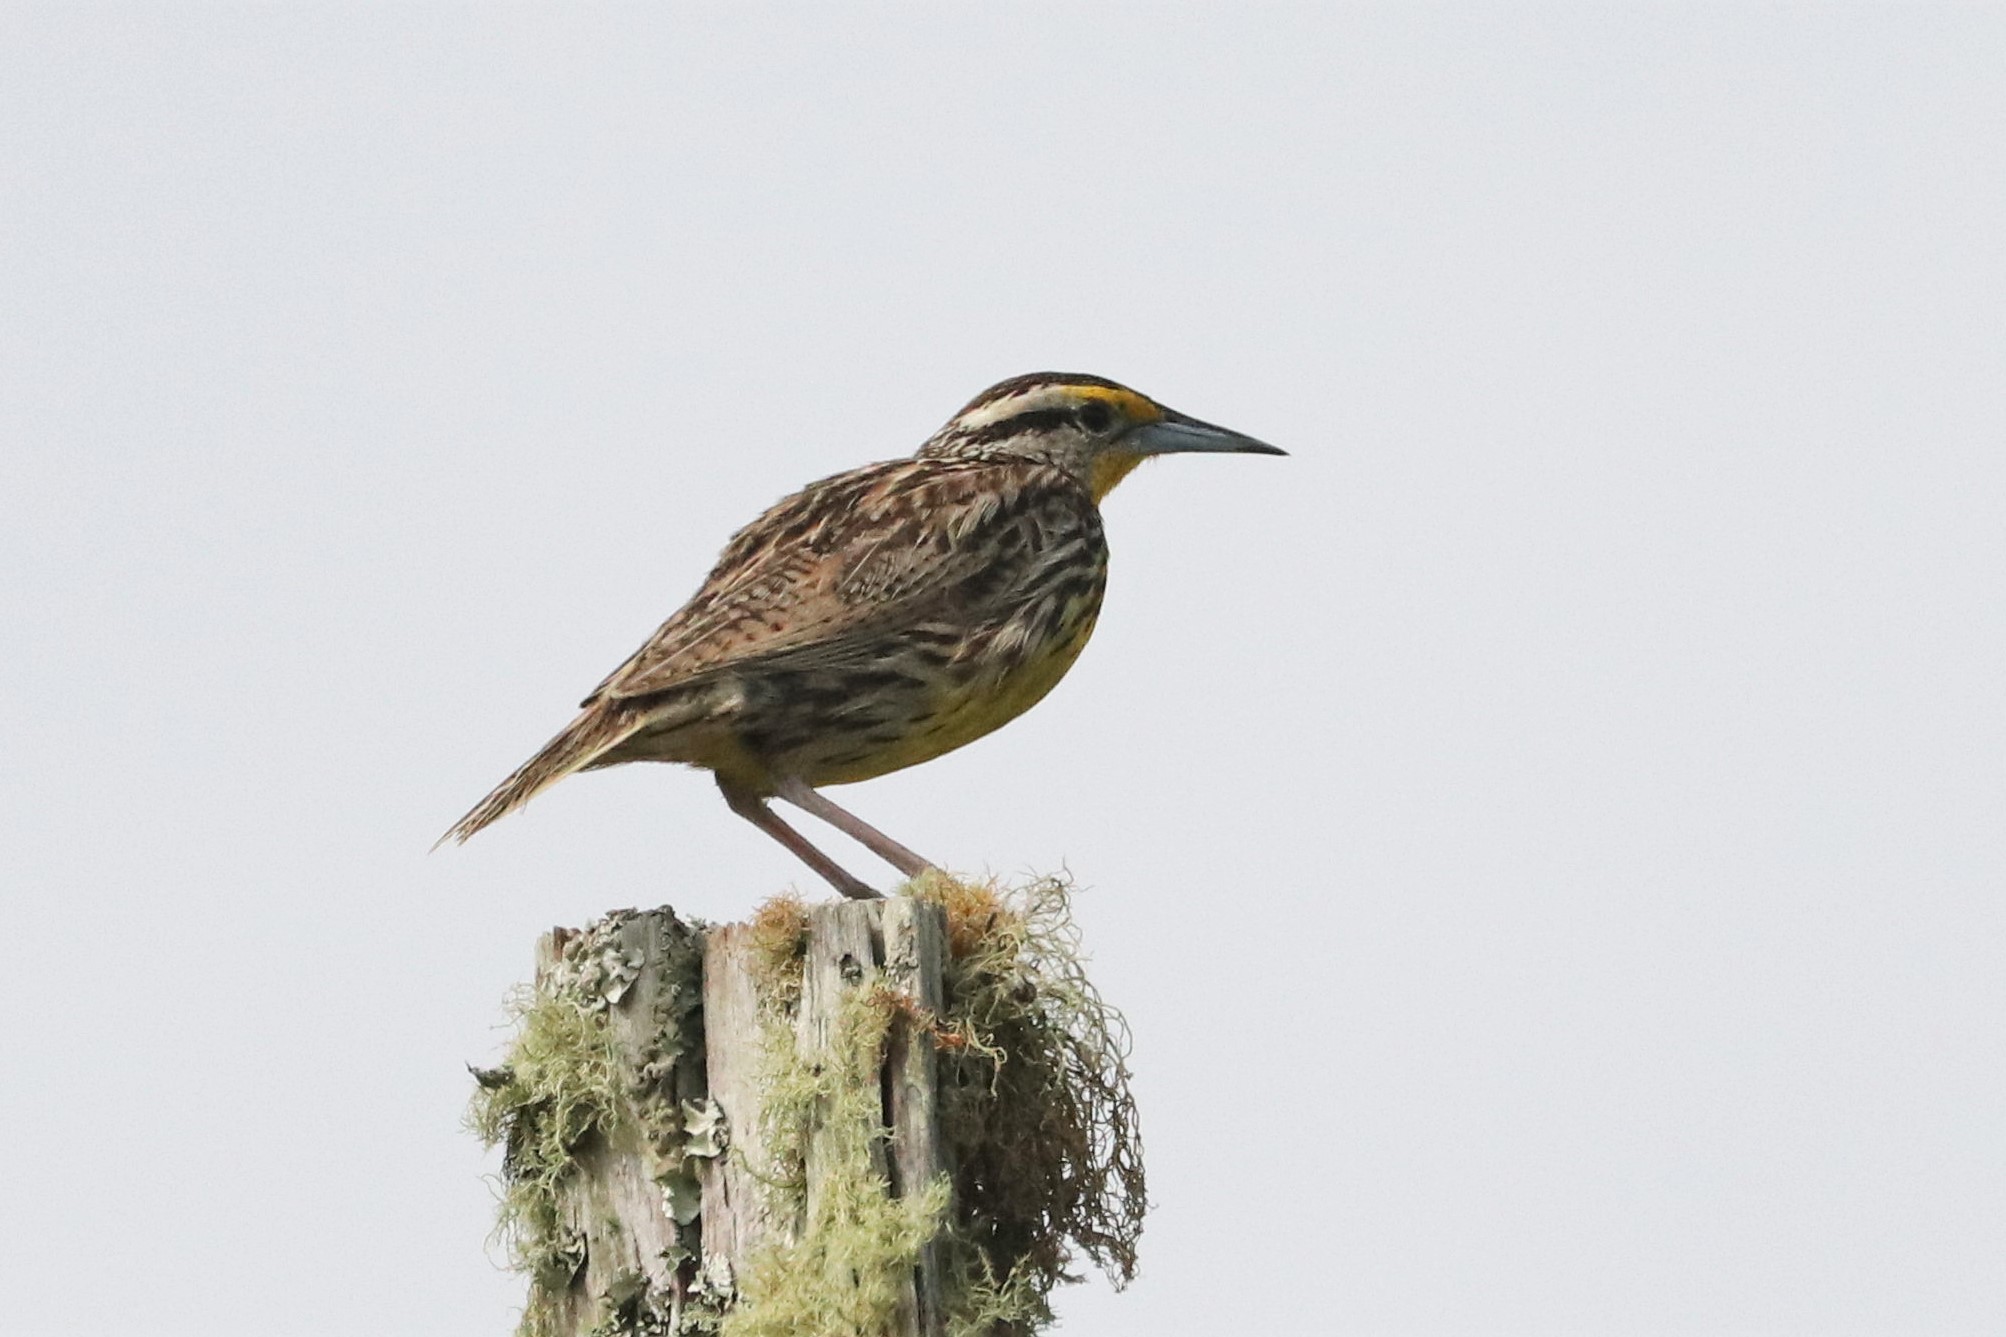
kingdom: Animalia
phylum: Chordata
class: Aves
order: Passeriformes
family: Icteridae
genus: Sturnella
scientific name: Sturnella magna
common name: Eastern meadowlark
